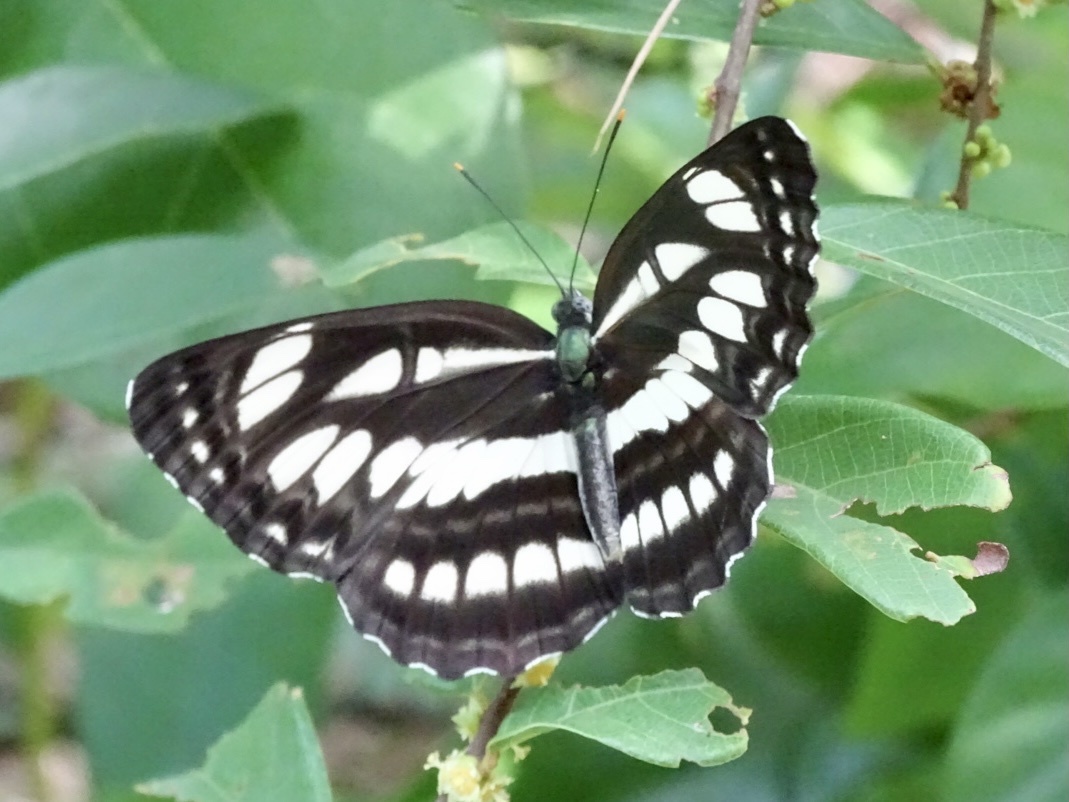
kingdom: Animalia
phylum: Arthropoda
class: Insecta
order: Lepidoptera
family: Nymphalidae
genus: Neptis
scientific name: Neptis hylas
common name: Common sailer
